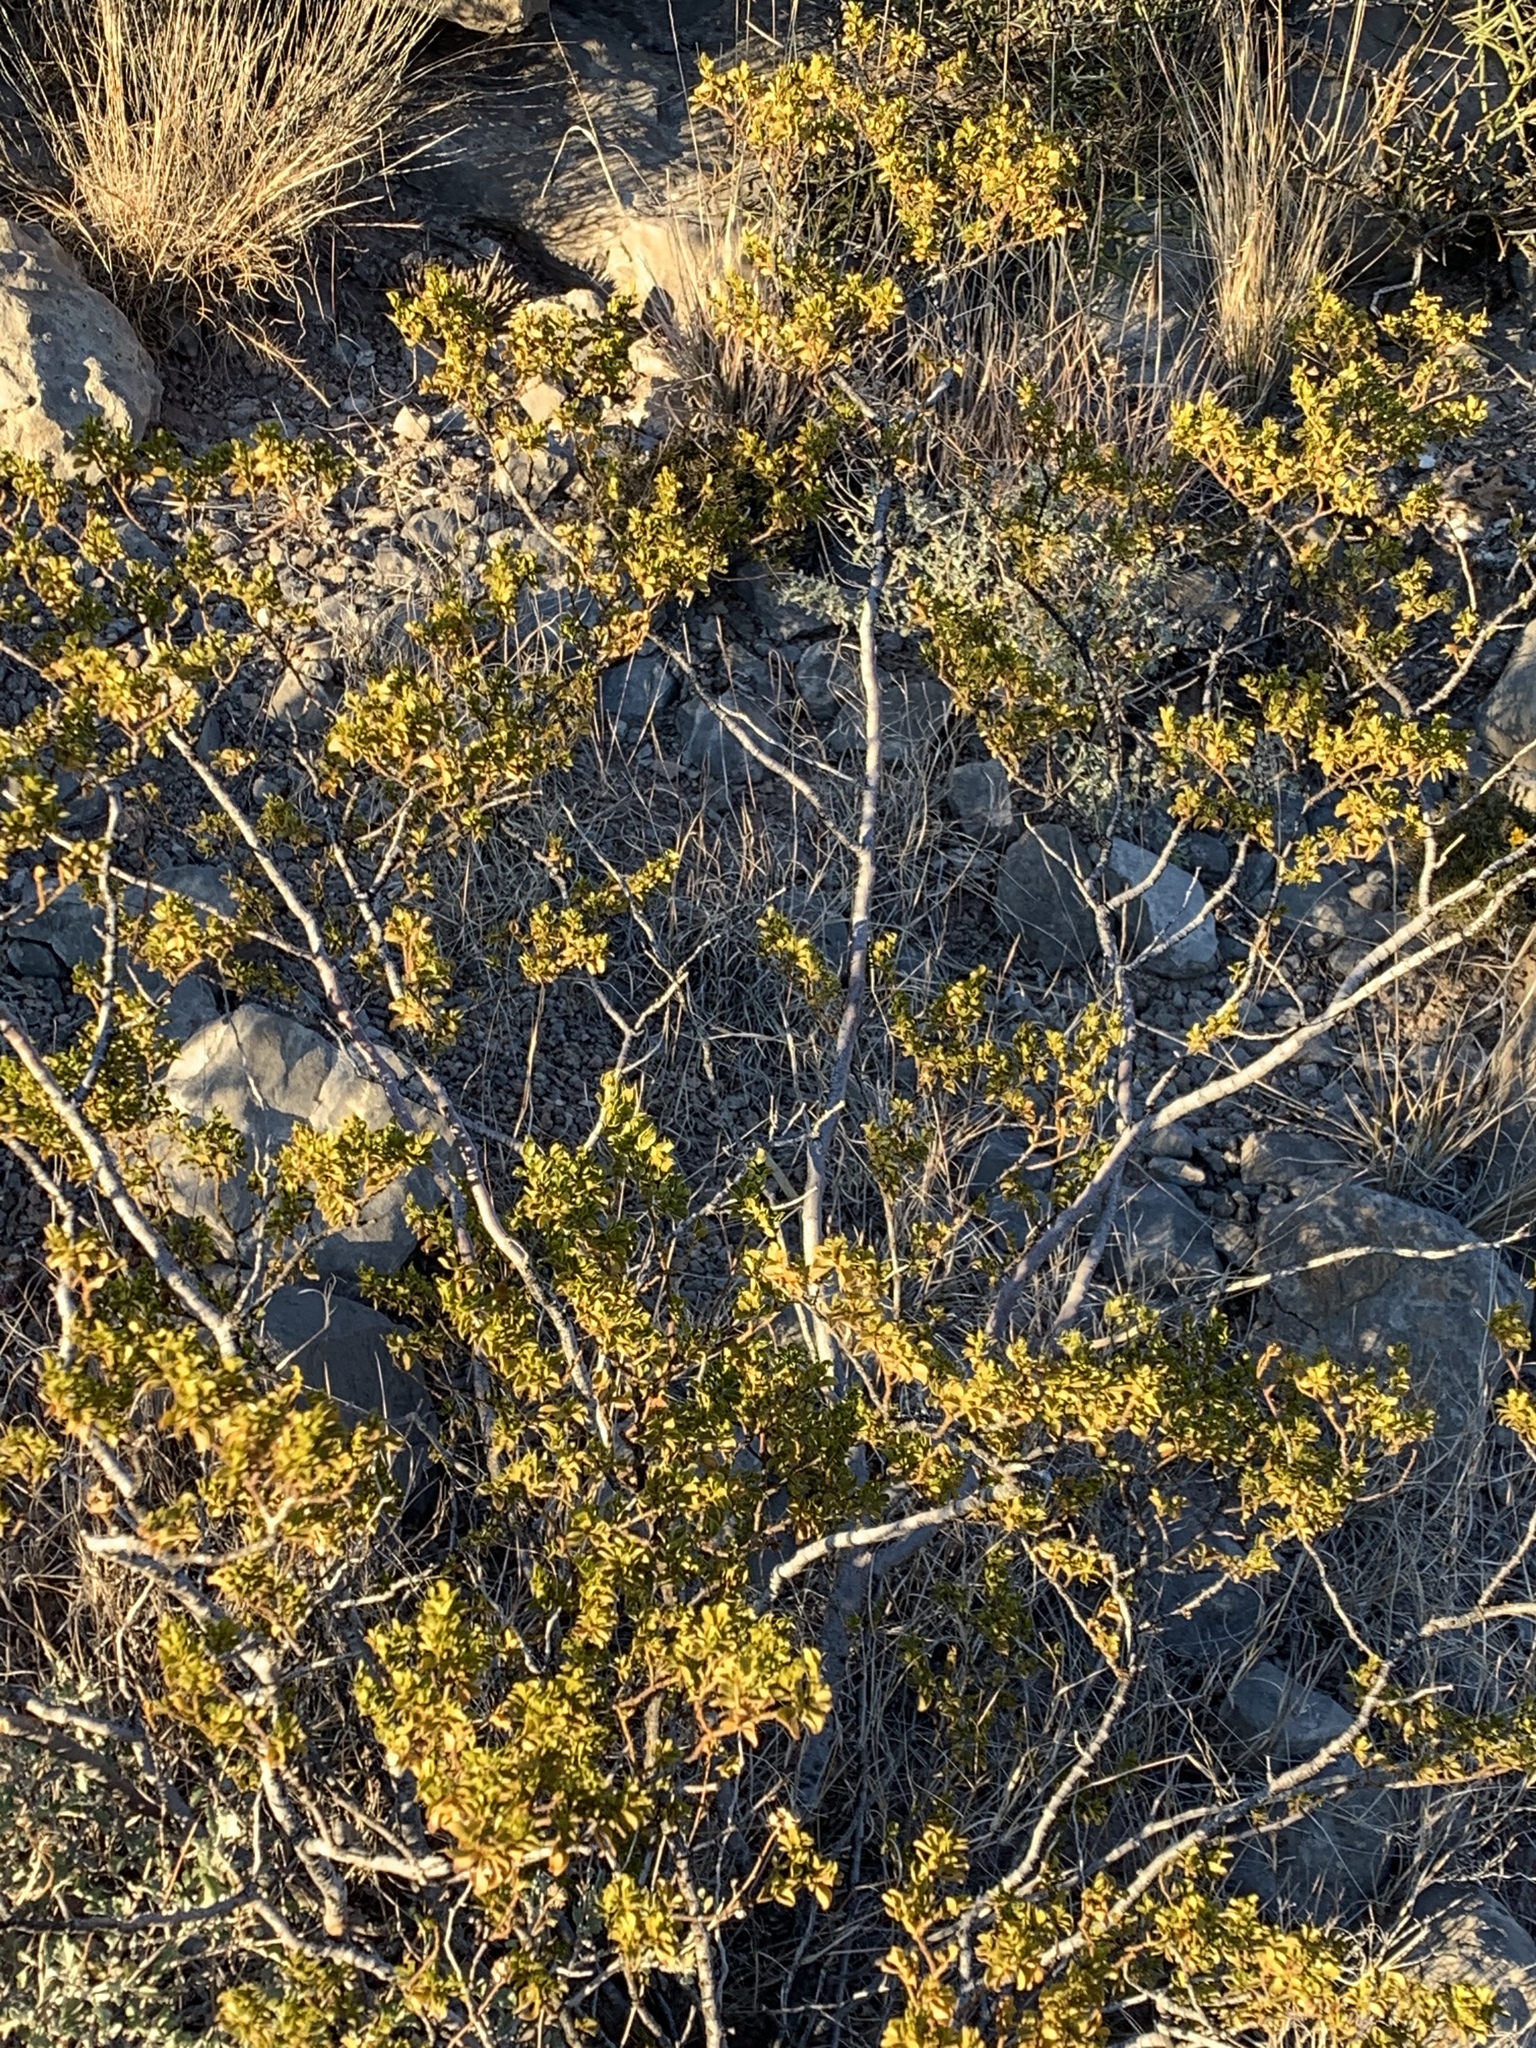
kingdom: Plantae
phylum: Tracheophyta
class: Magnoliopsida
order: Zygophyllales
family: Zygophyllaceae
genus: Larrea
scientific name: Larrea tridentata
